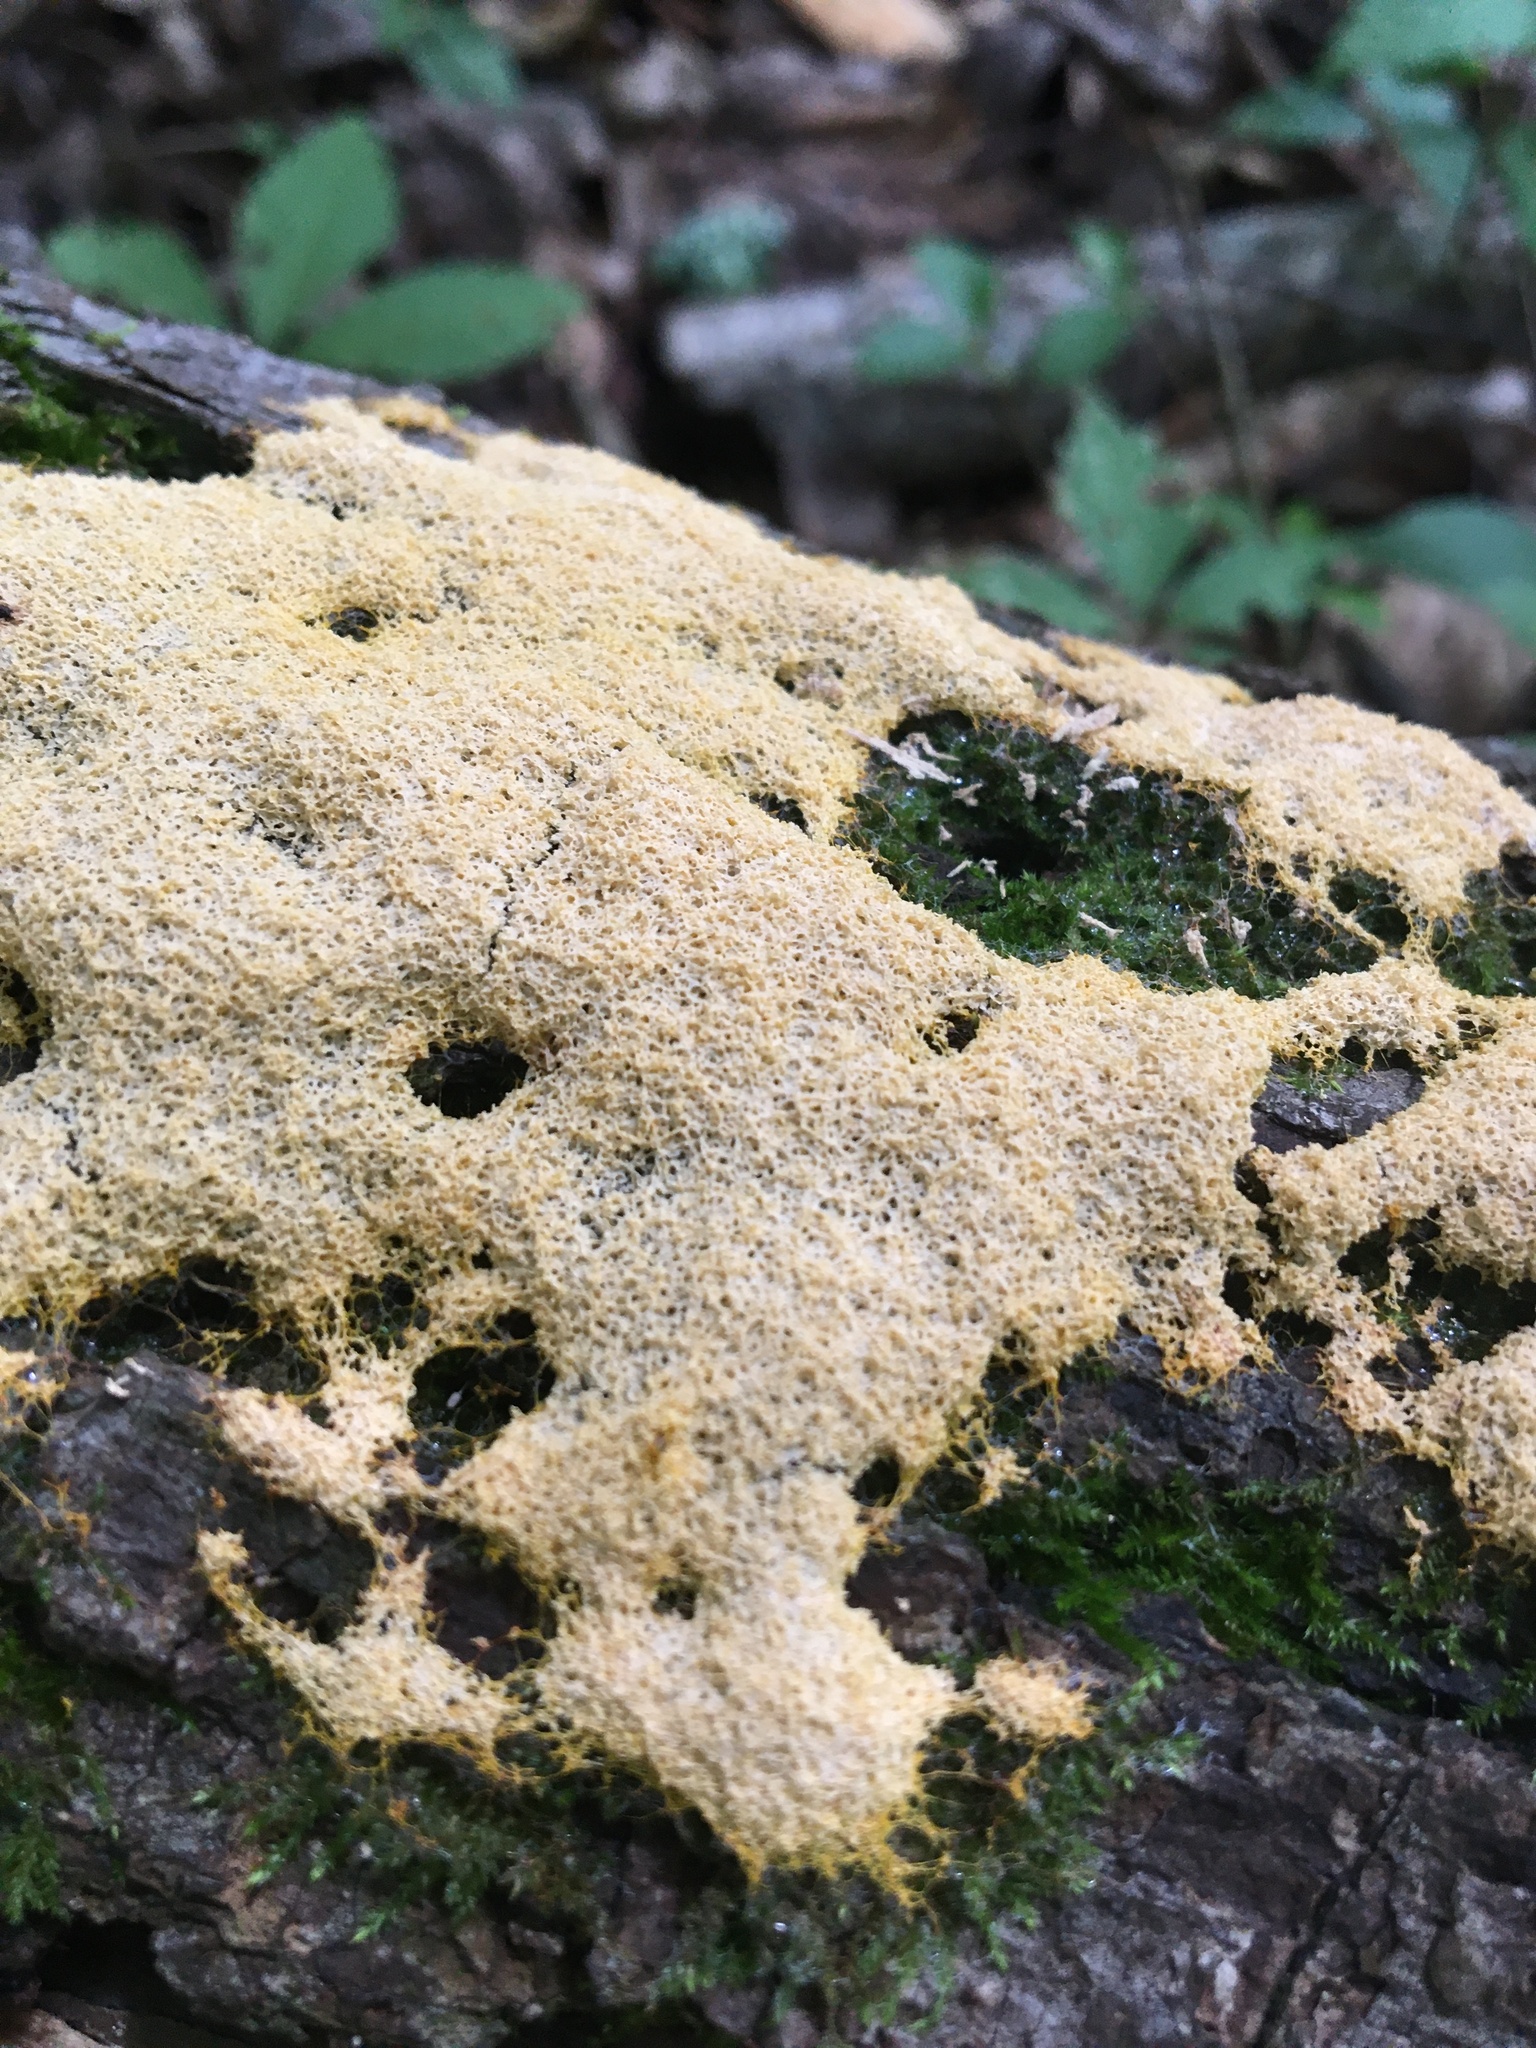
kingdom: Protozoa
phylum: Mycetozoa
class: Myxomycetes
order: Physarales
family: Physaraceae
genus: Fuligo
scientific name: Fuligo septica
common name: Dog vomit slime mold
